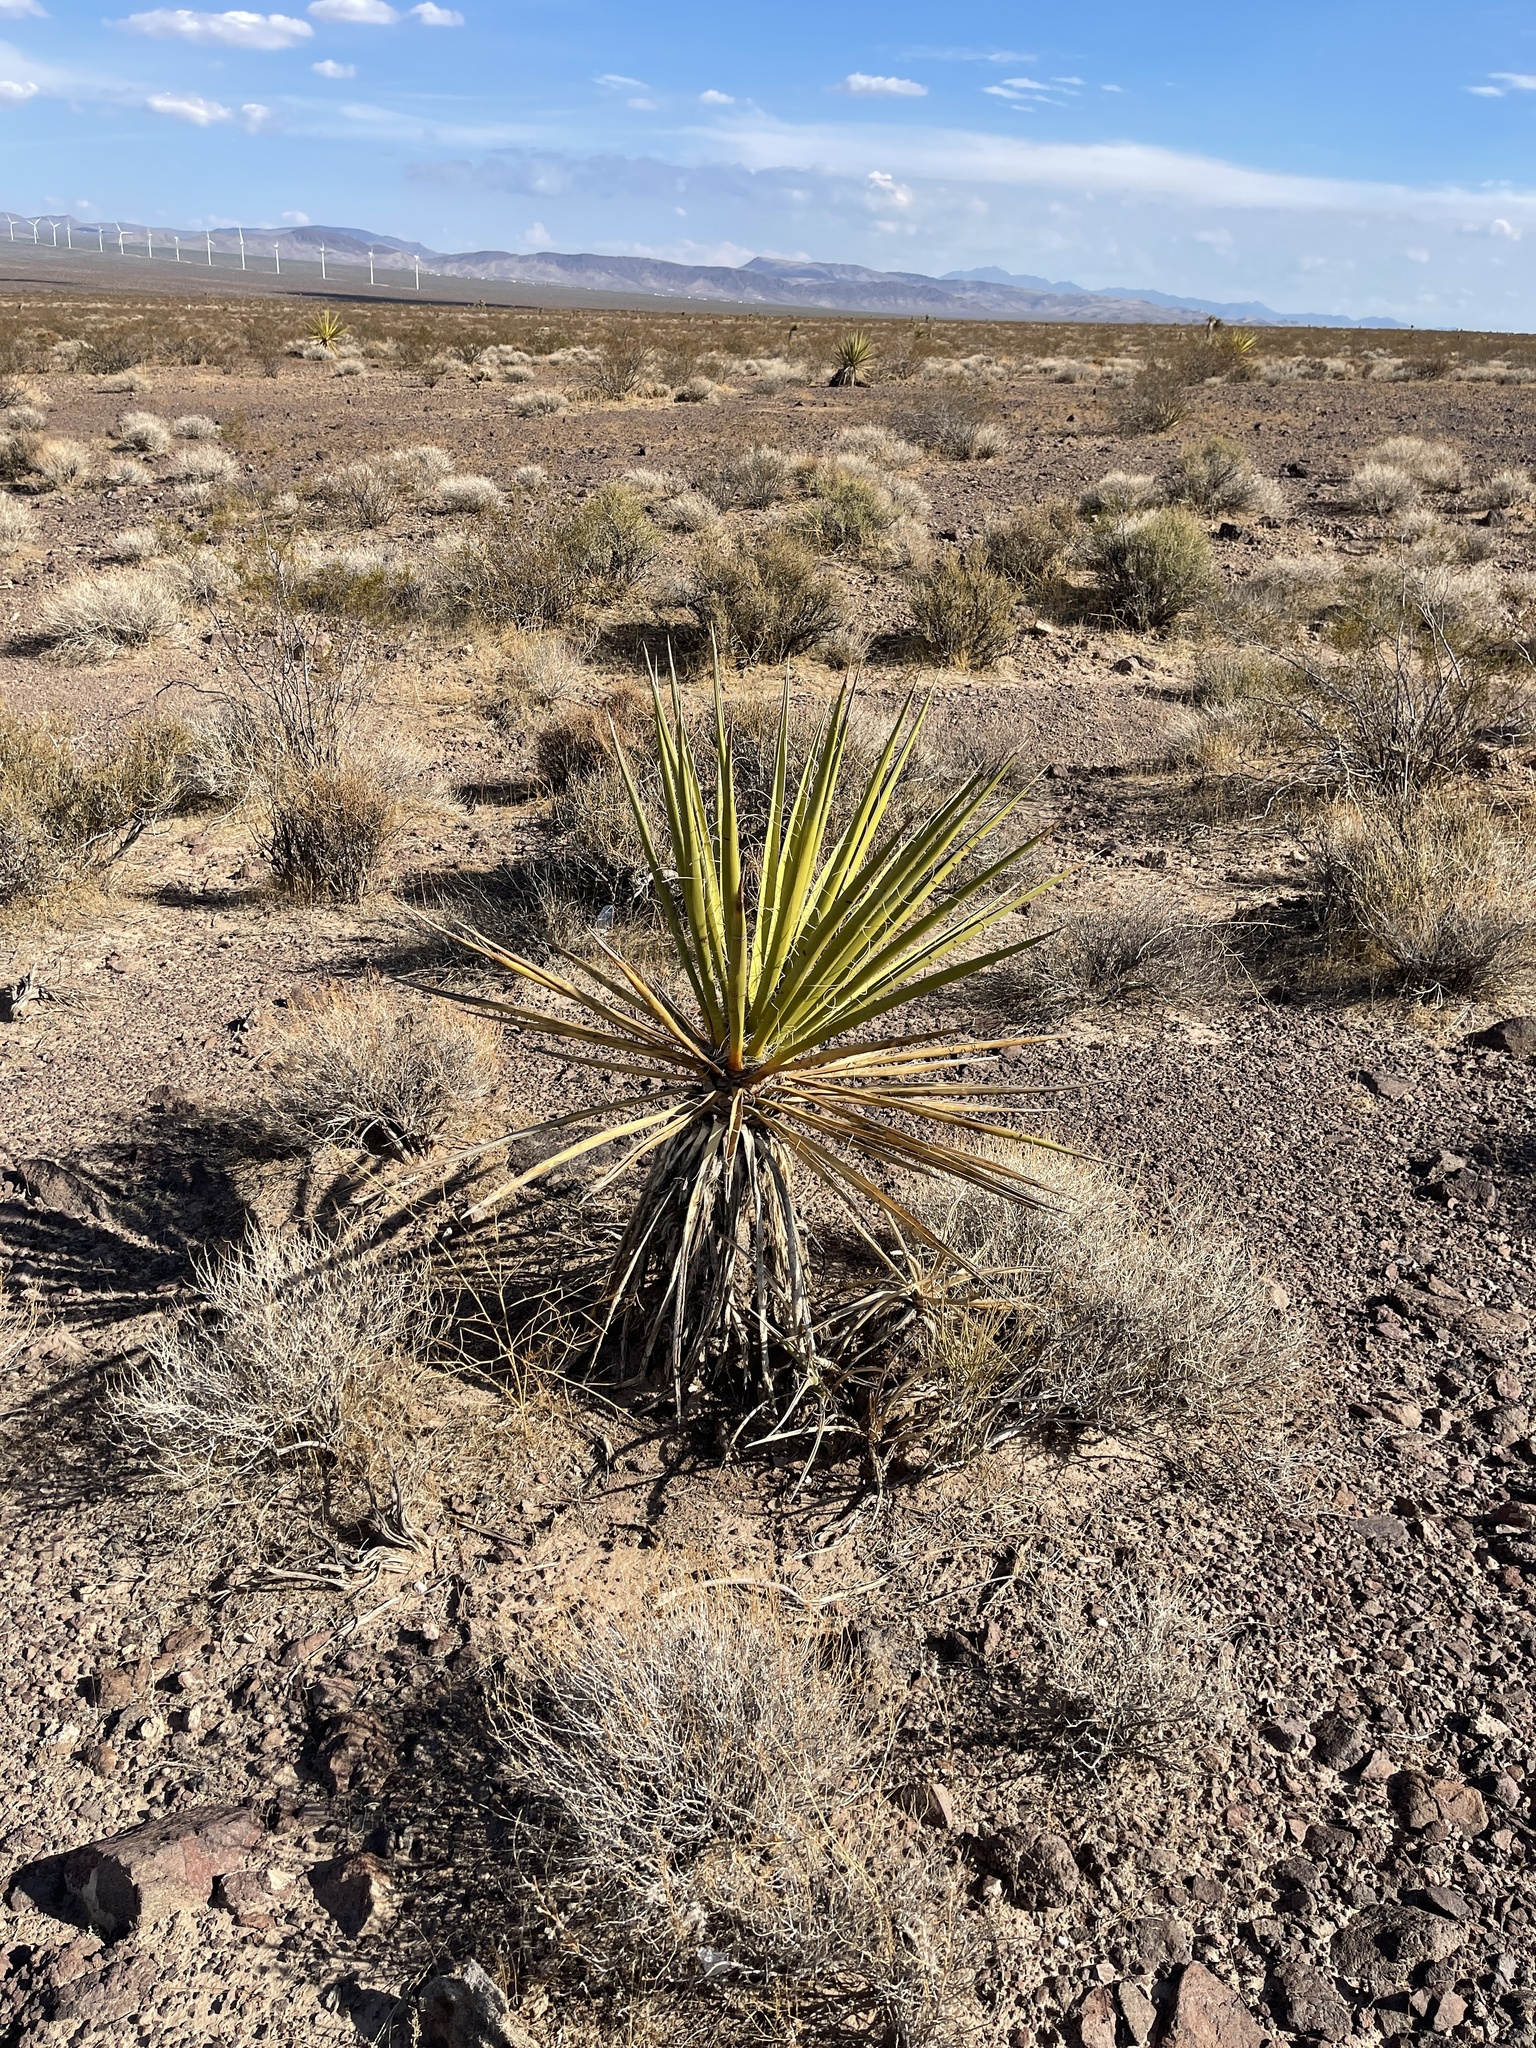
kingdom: Plantae
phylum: Tracheophyta
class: Liliopsida
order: Asparagales
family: Asparagaceae
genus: Yucca
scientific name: Yucca schidigera
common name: Mojave yucca
